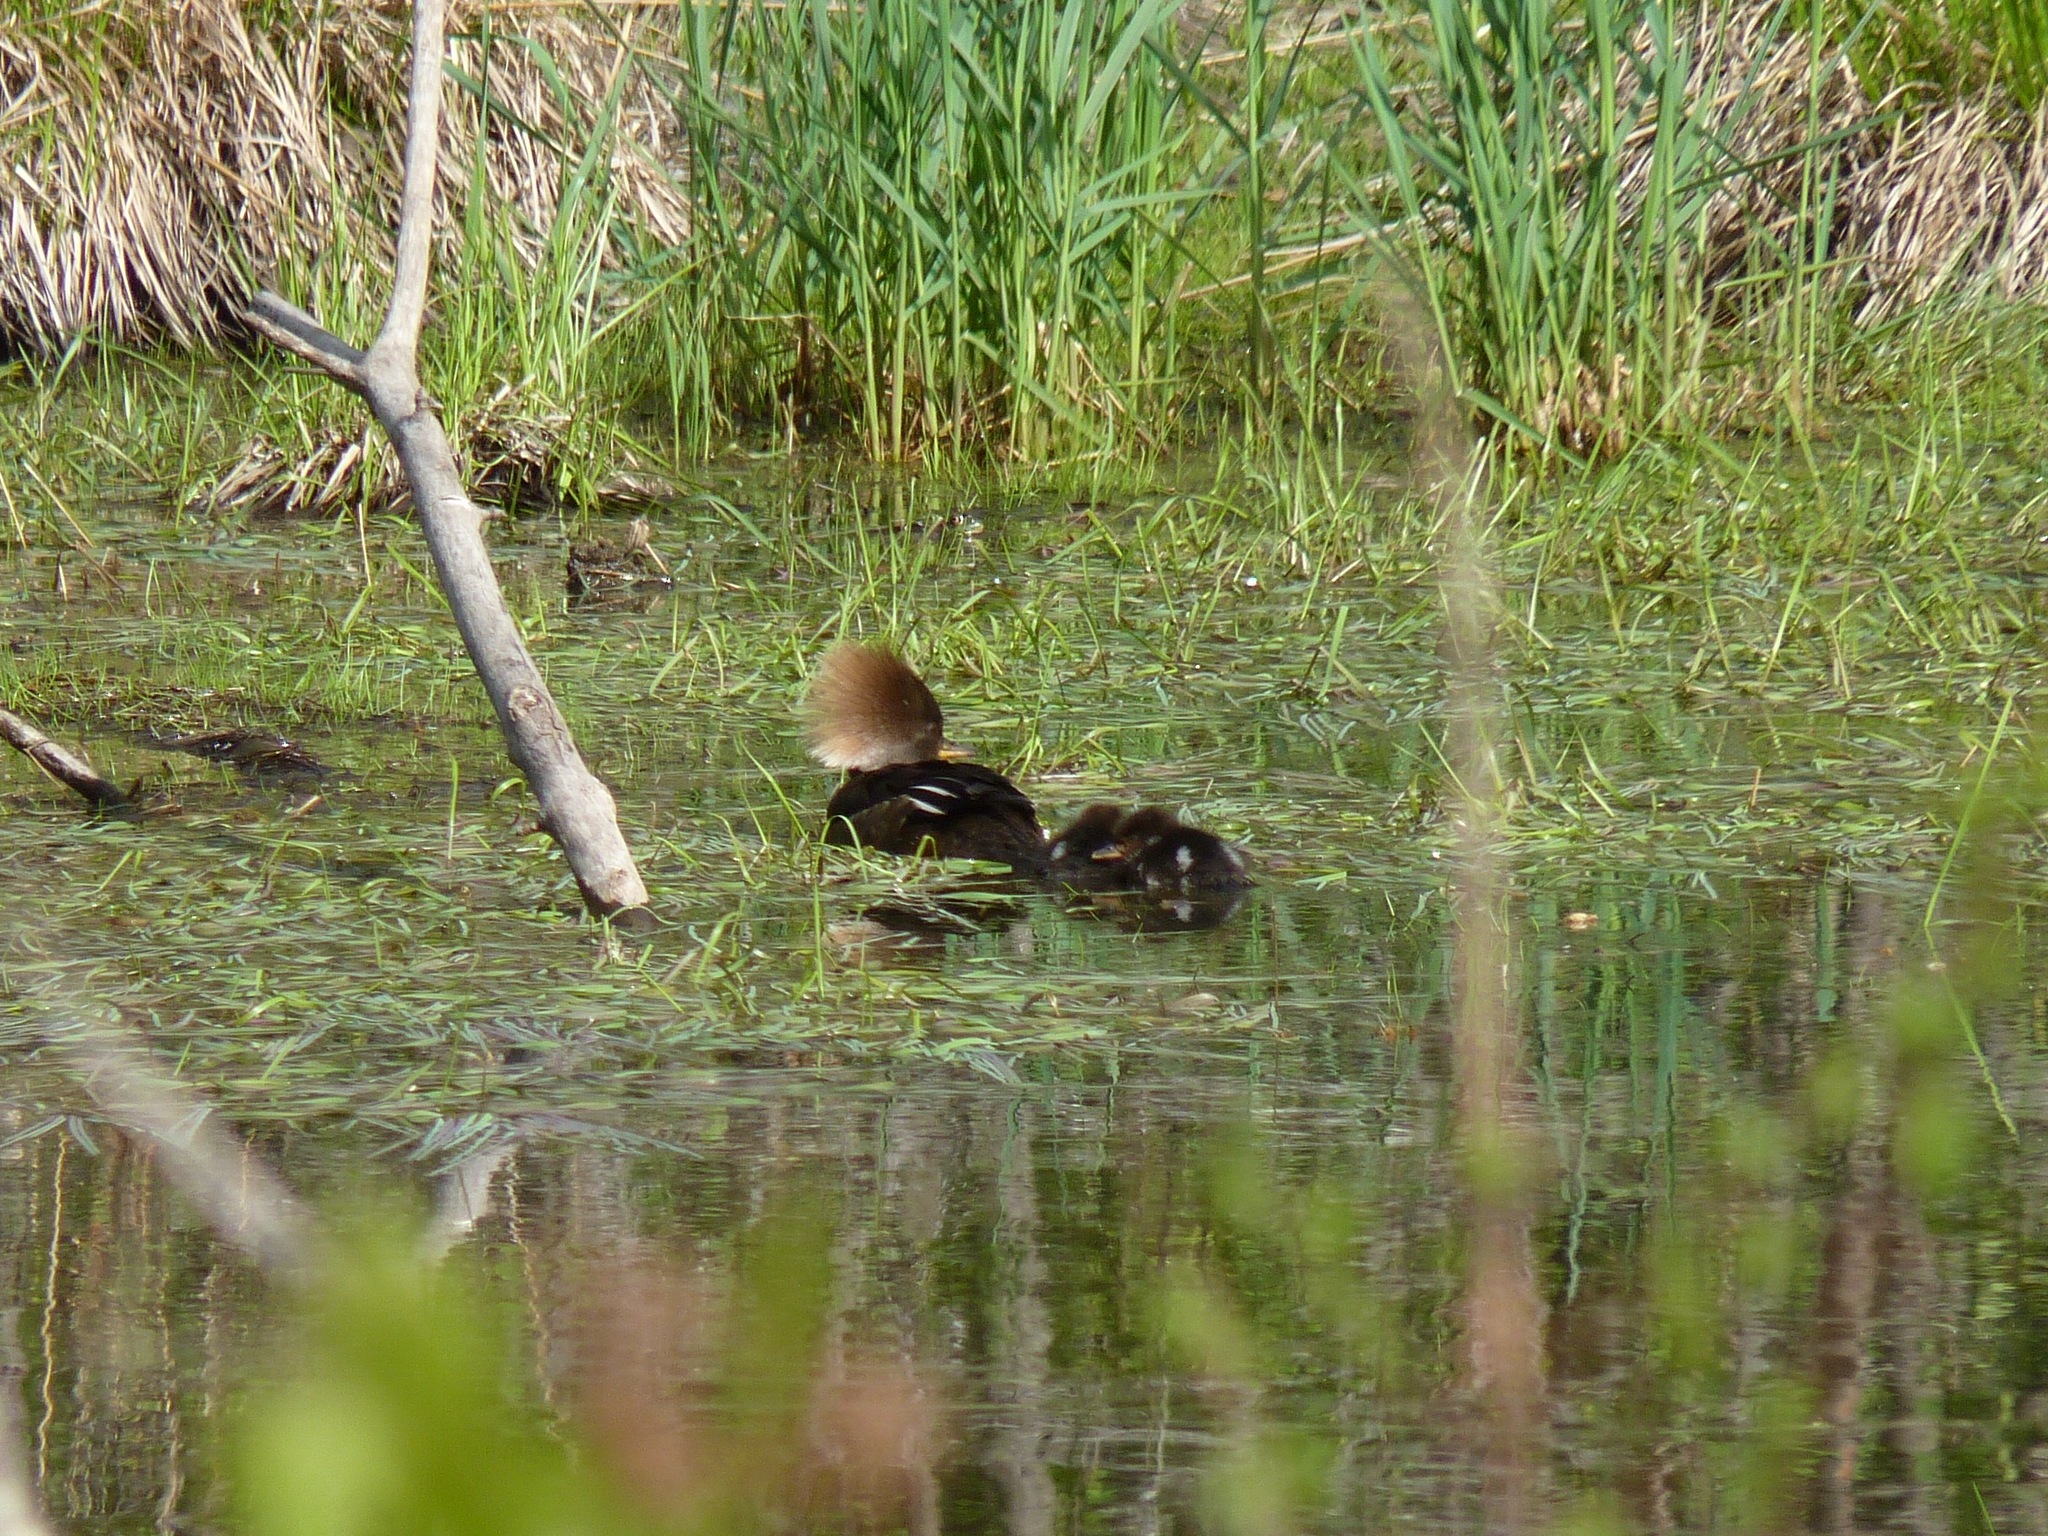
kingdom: Animalia
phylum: Chordata
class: Aves
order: Anseriformes
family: Anatidae
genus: Lophodytes
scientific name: Lophodytes cucullatus
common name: Hooded merganser
